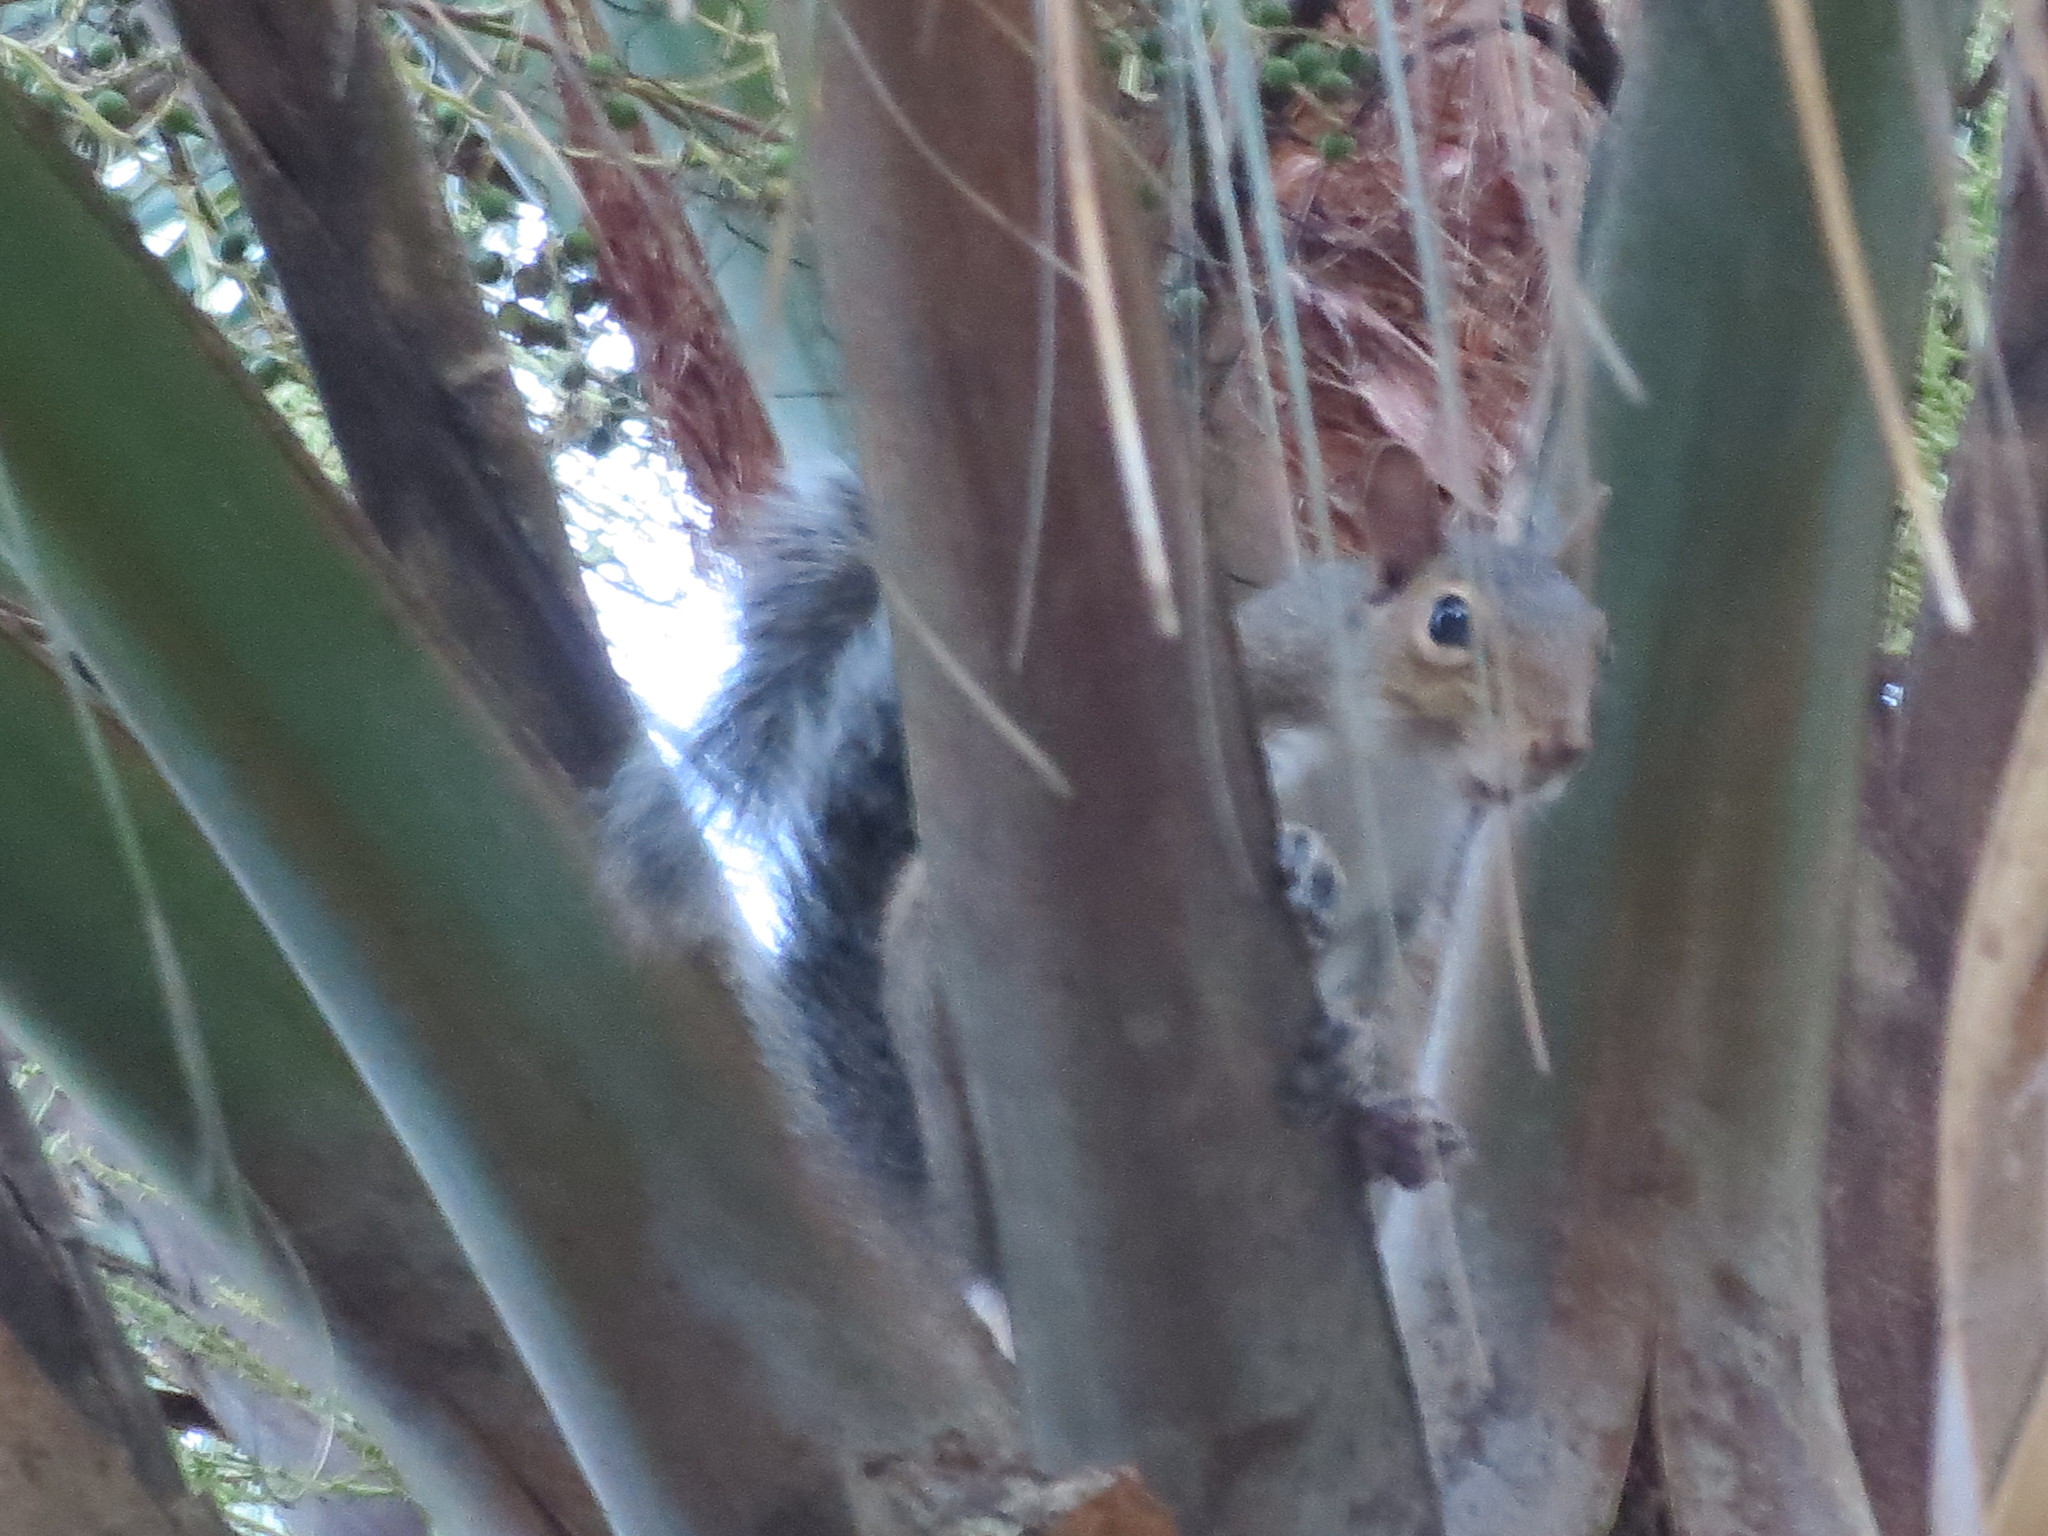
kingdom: Animalia
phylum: Chordata
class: Mammalia
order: Rodentia
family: Sciuridae
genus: Sciurus
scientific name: Sciurus carolinensis
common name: Eastern gray squirrel
